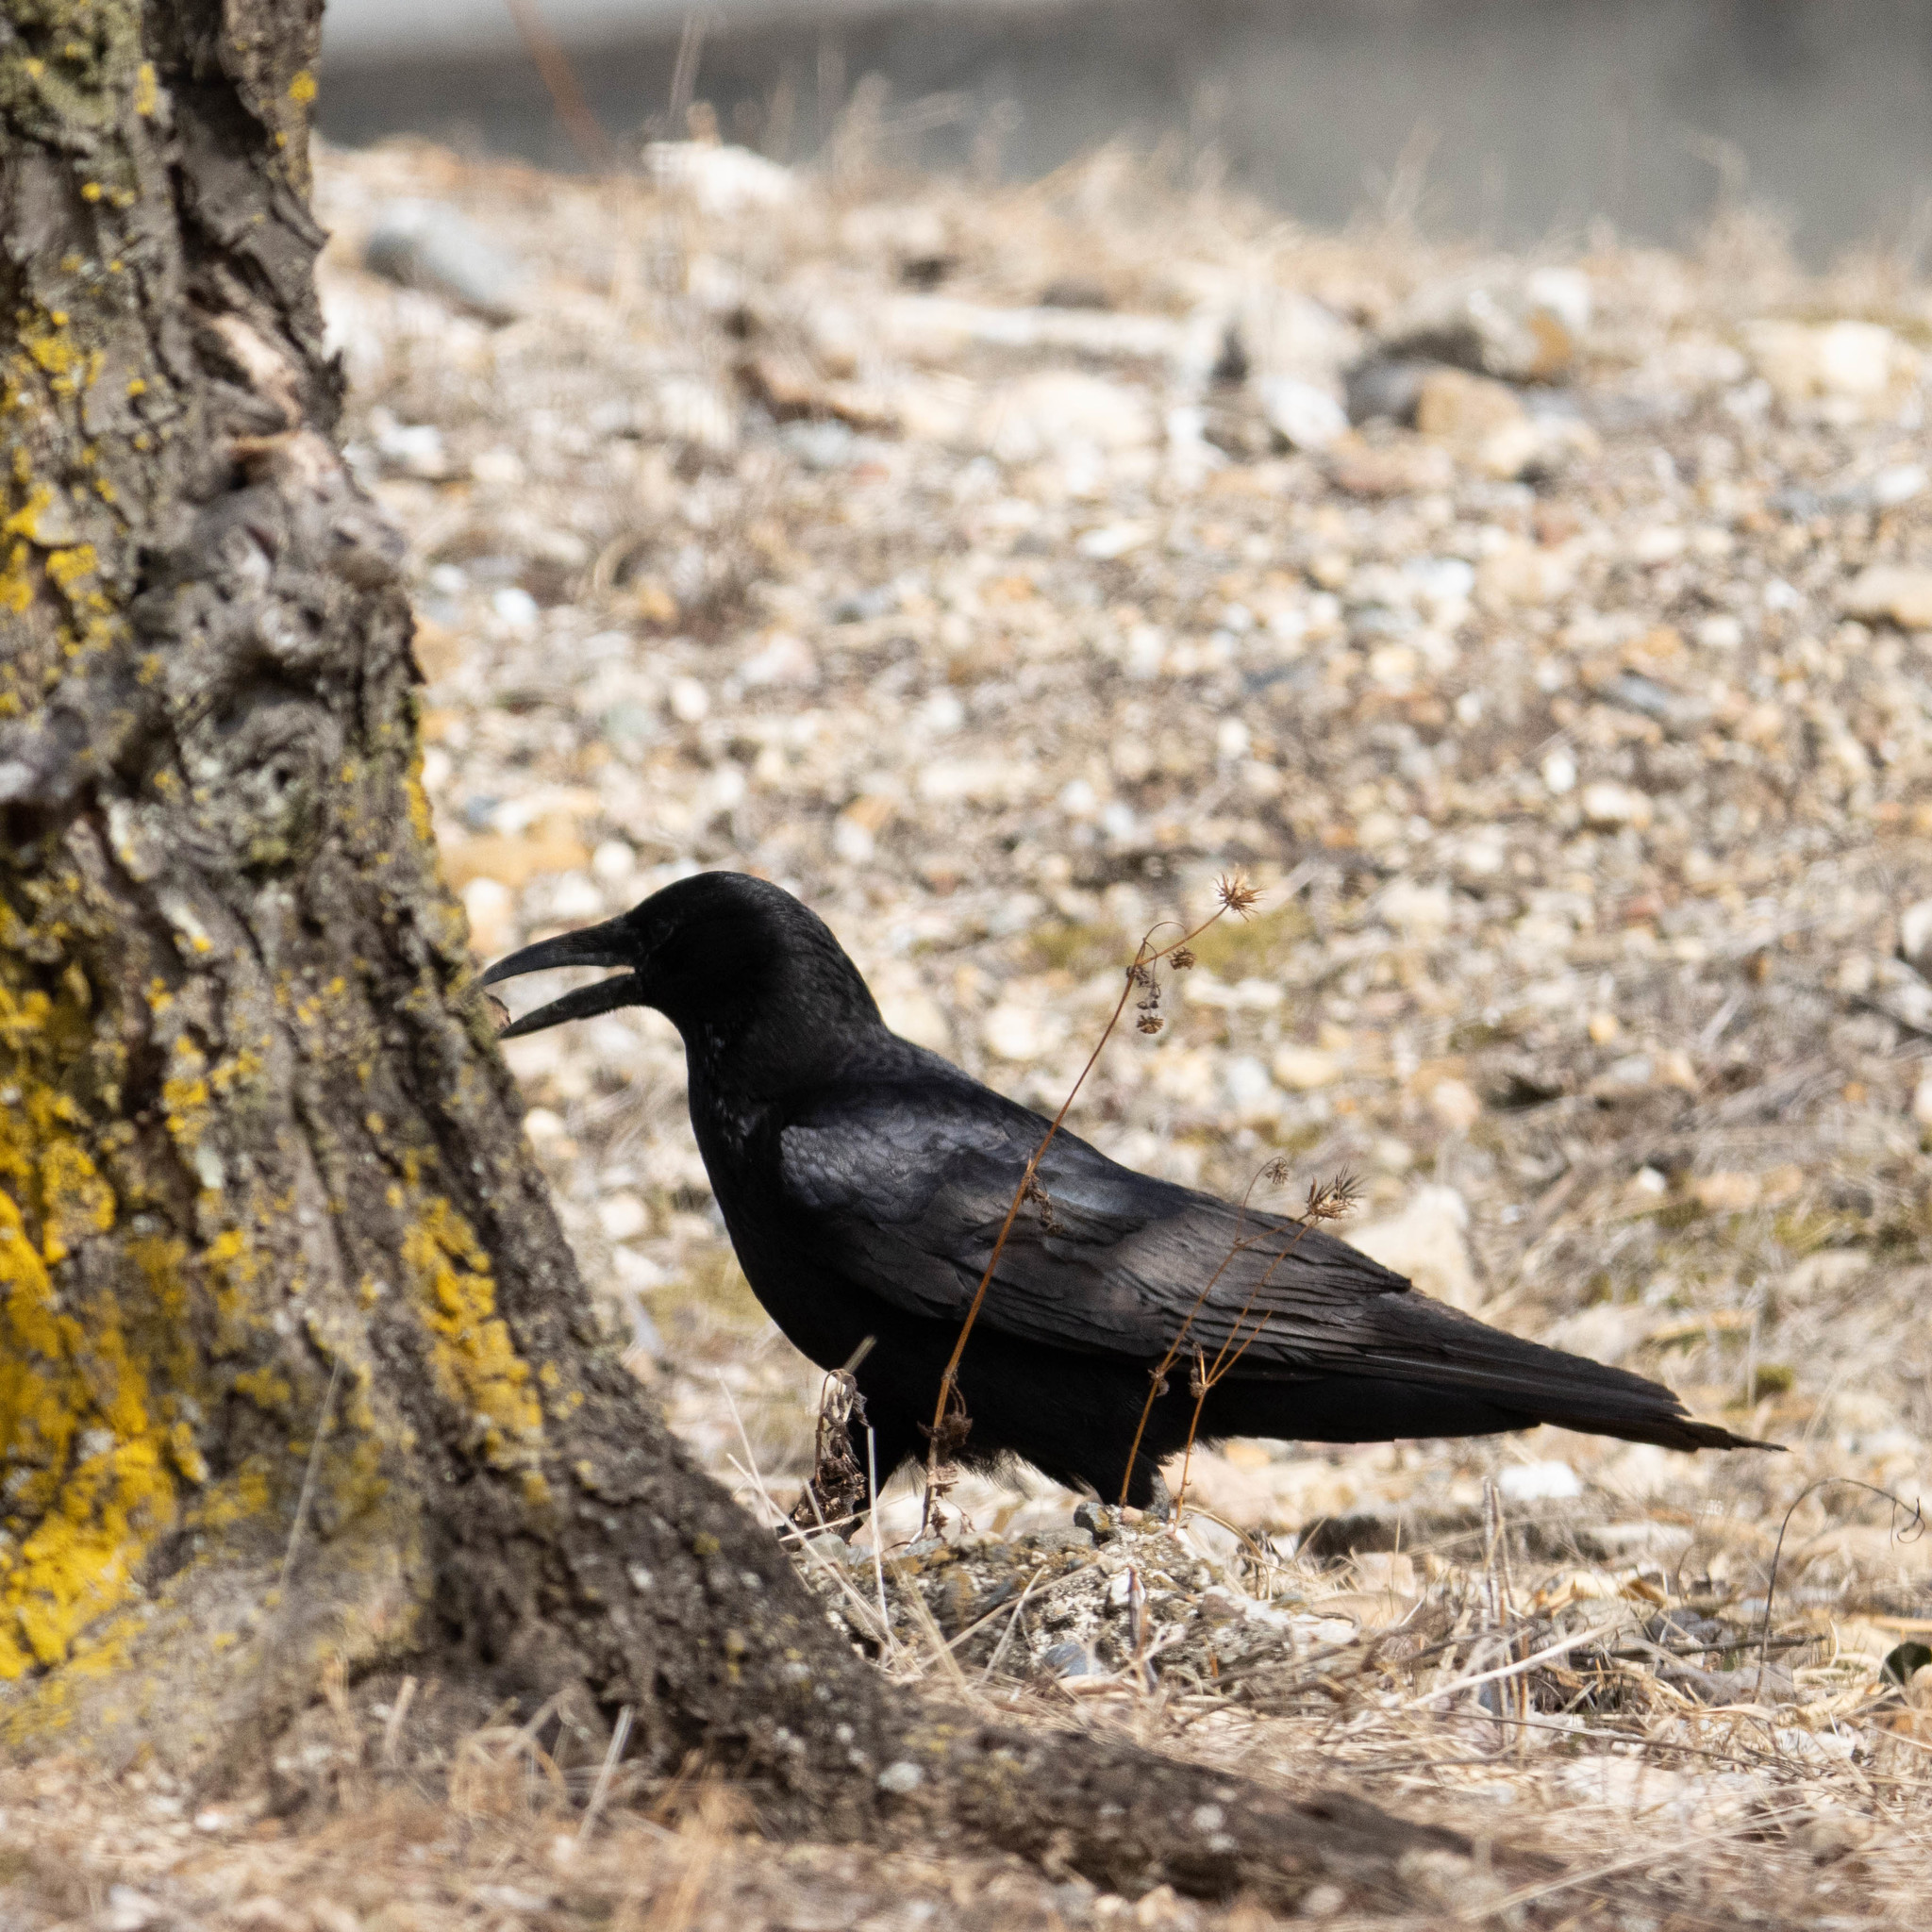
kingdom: Animalia
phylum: Chordata
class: Aves
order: Passeriformes
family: Corvidae
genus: Corvus
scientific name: Corvus corone
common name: Carrion crow
